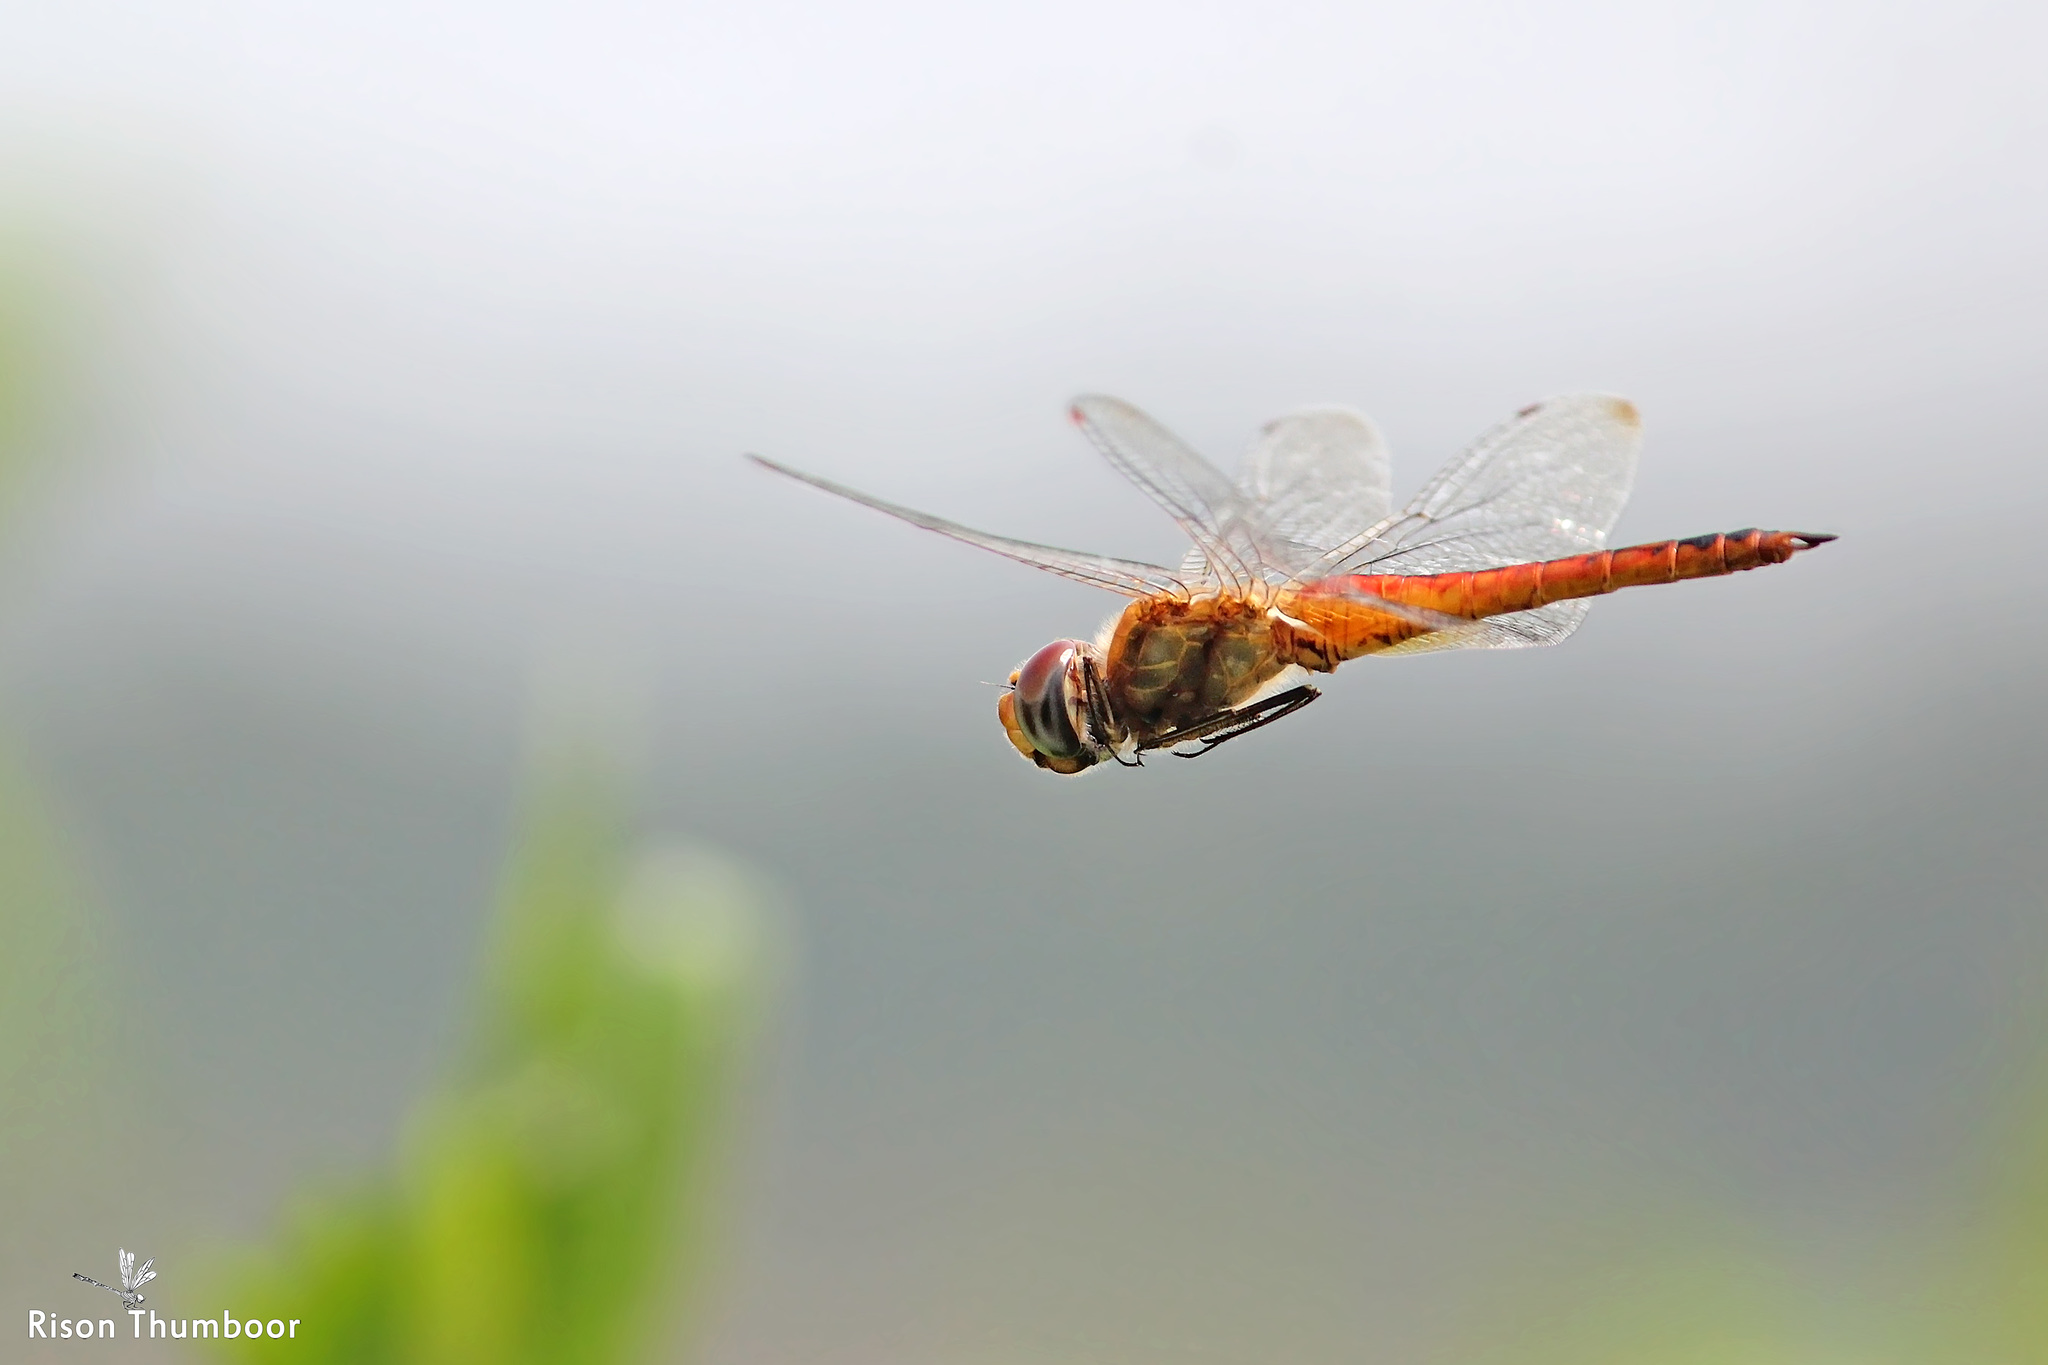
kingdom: Animalia
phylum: Arthropoda
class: Insecta
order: Odonata
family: Libellulidae
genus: Pantala
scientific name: Pantala flavescens
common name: Wandering glider
